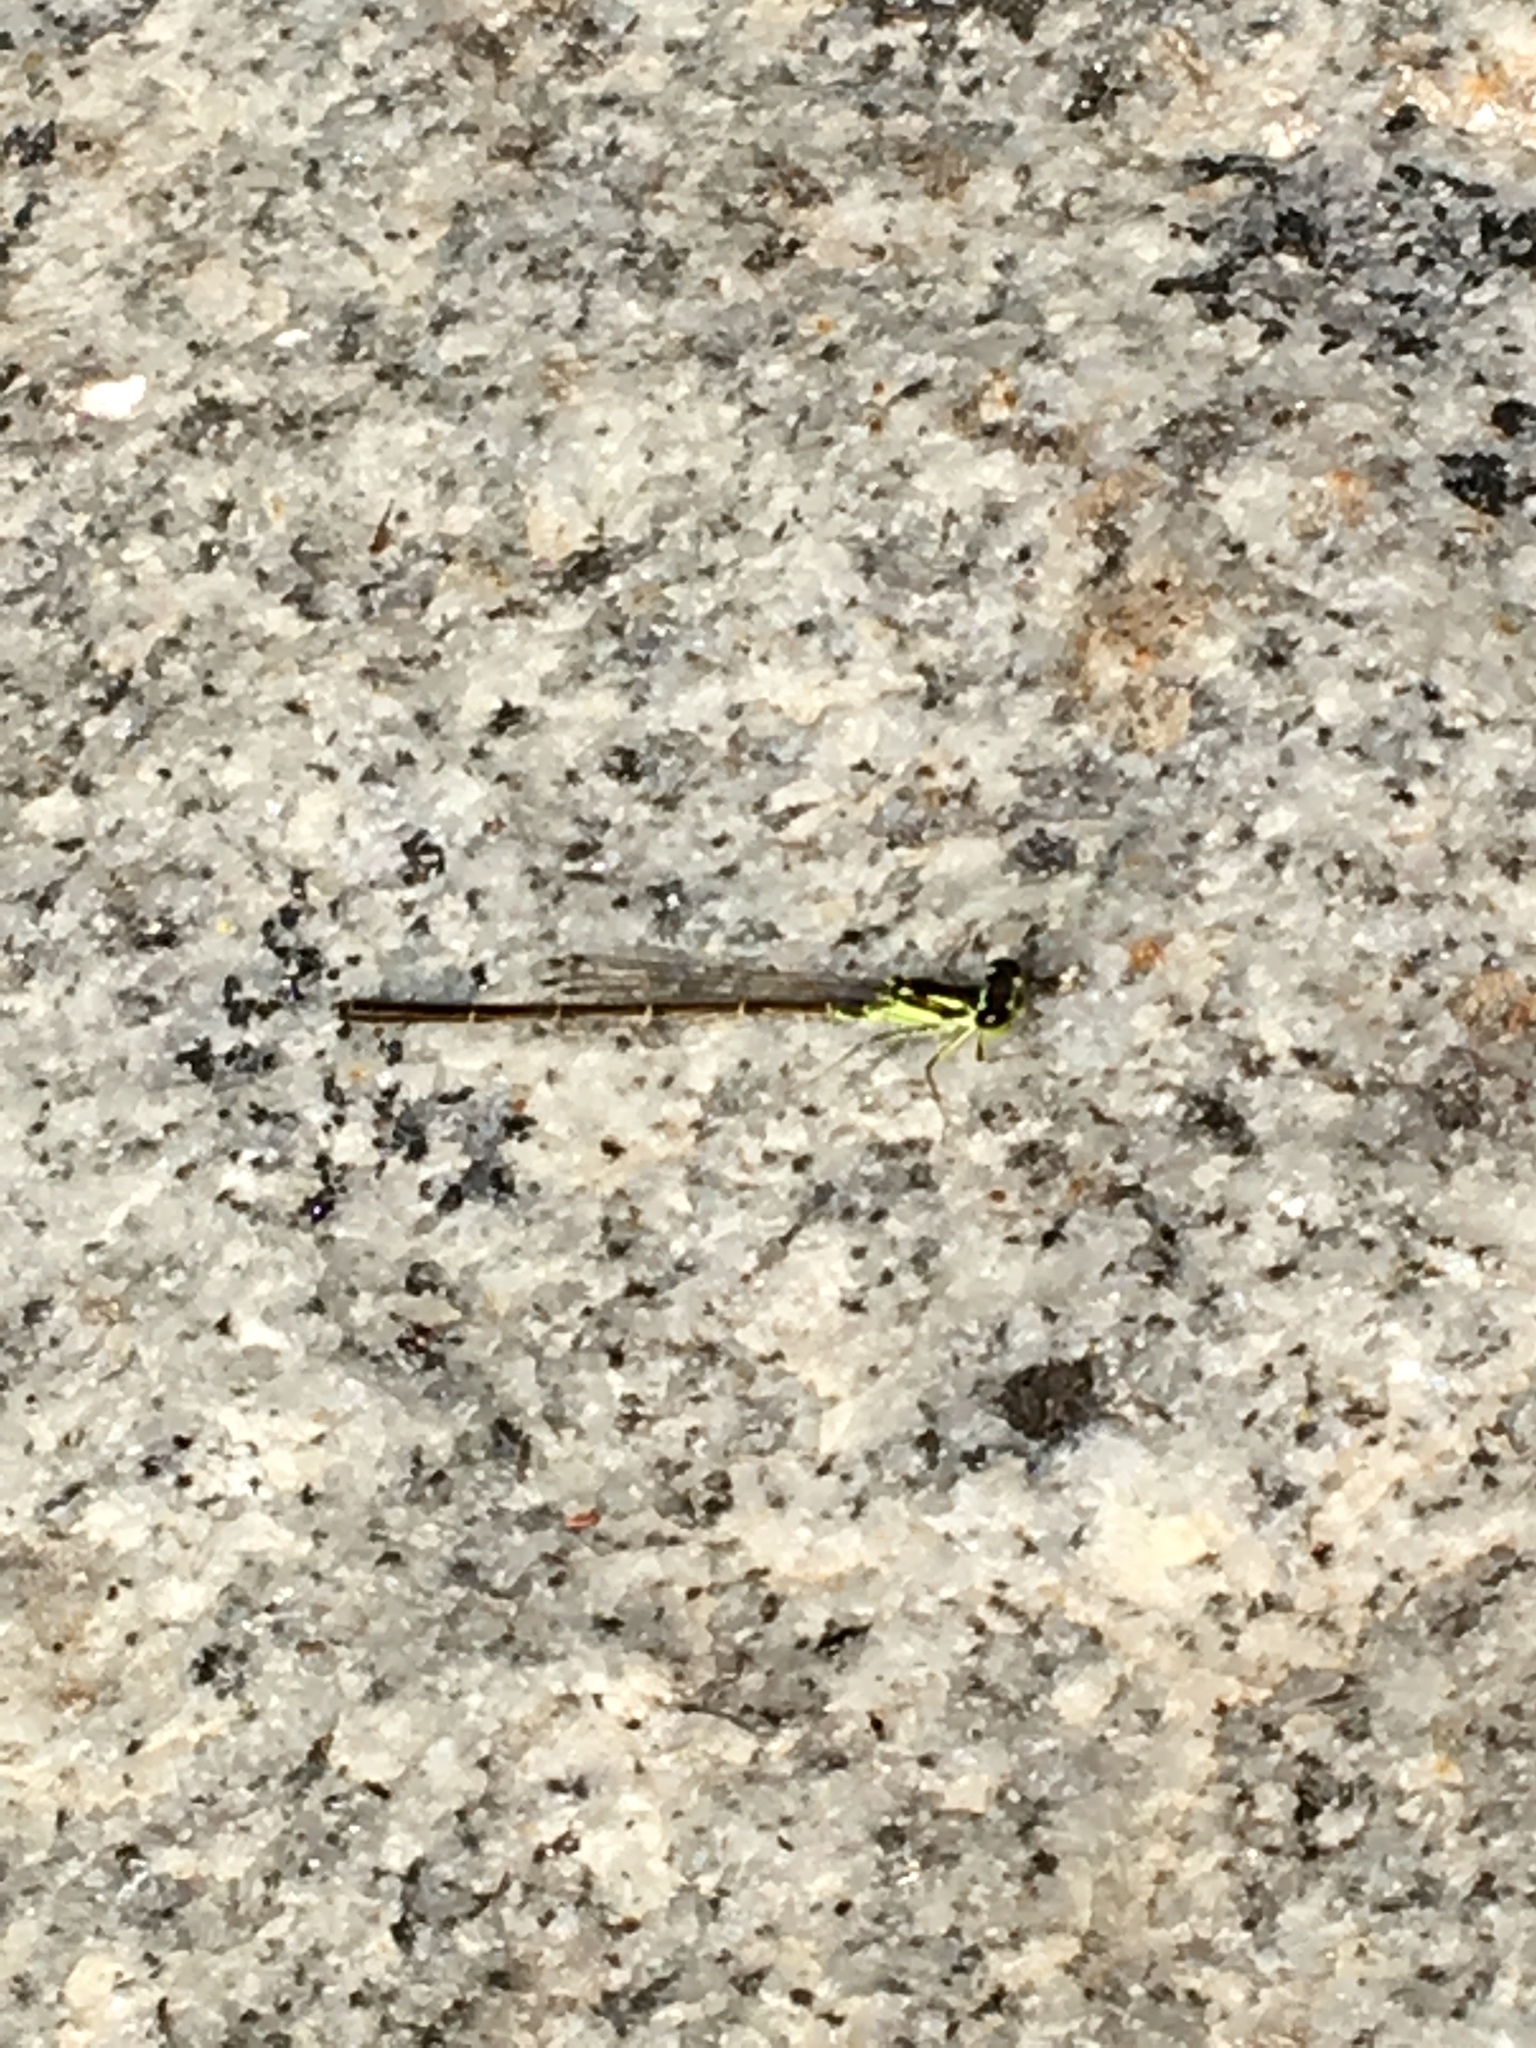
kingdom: Animalia
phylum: Arthropoda
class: Insecta
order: Odonata
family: Coenagrionidae
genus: Ischnura
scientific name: Ischnura posita
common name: Fragile forktail
